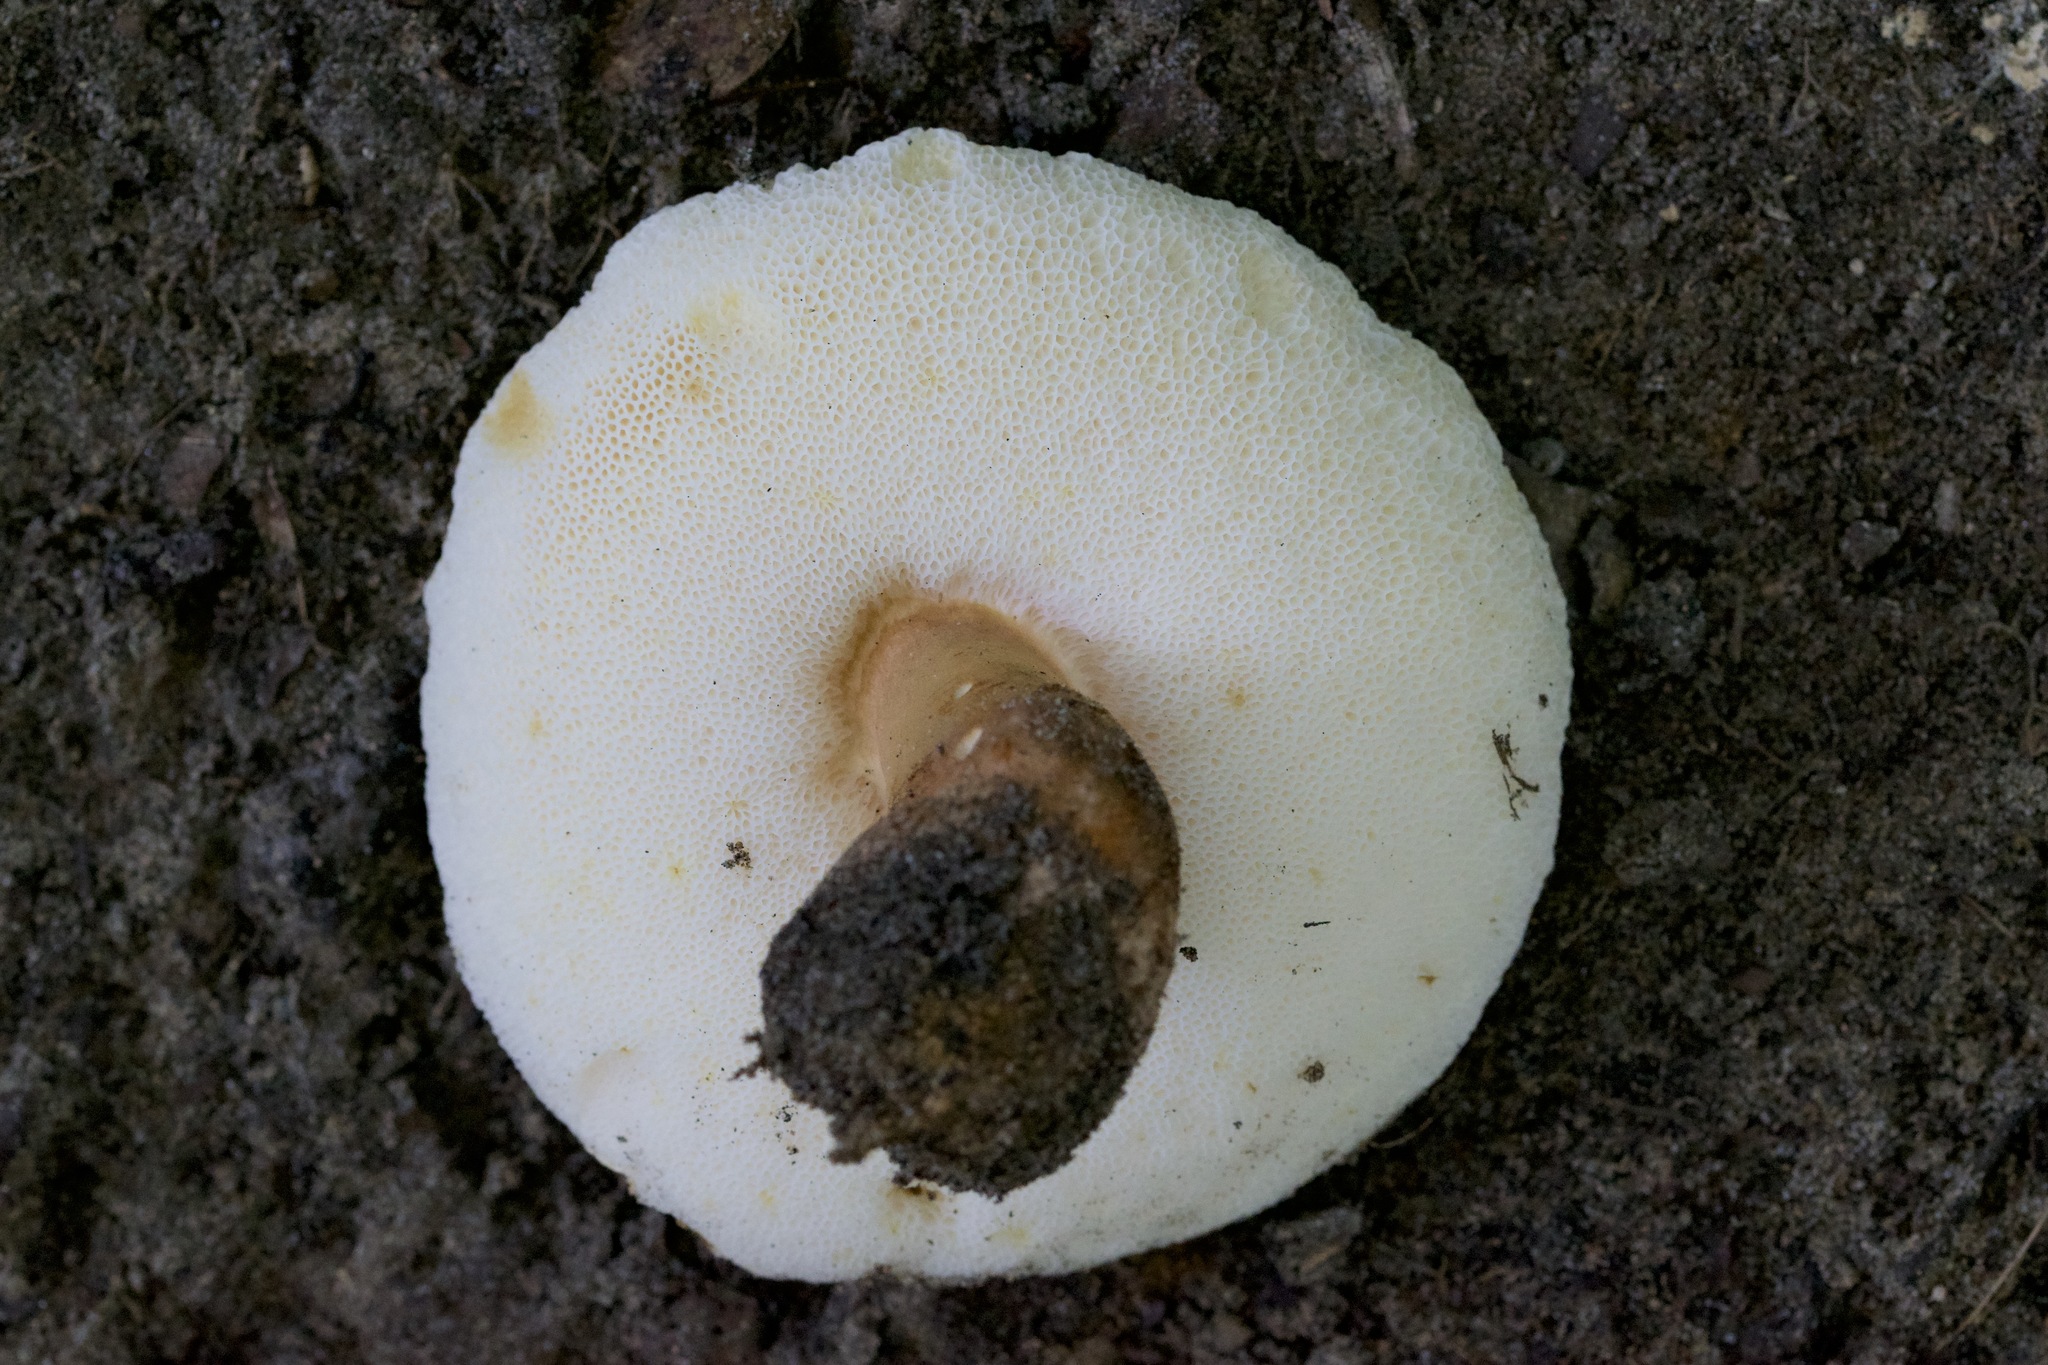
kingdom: Fungi
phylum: Basidiomycota
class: Agaricomycetes
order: Boletales
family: Gyroporaceae
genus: Gyroporus
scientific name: Gyroporus castaneus
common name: Chestnut bolete
